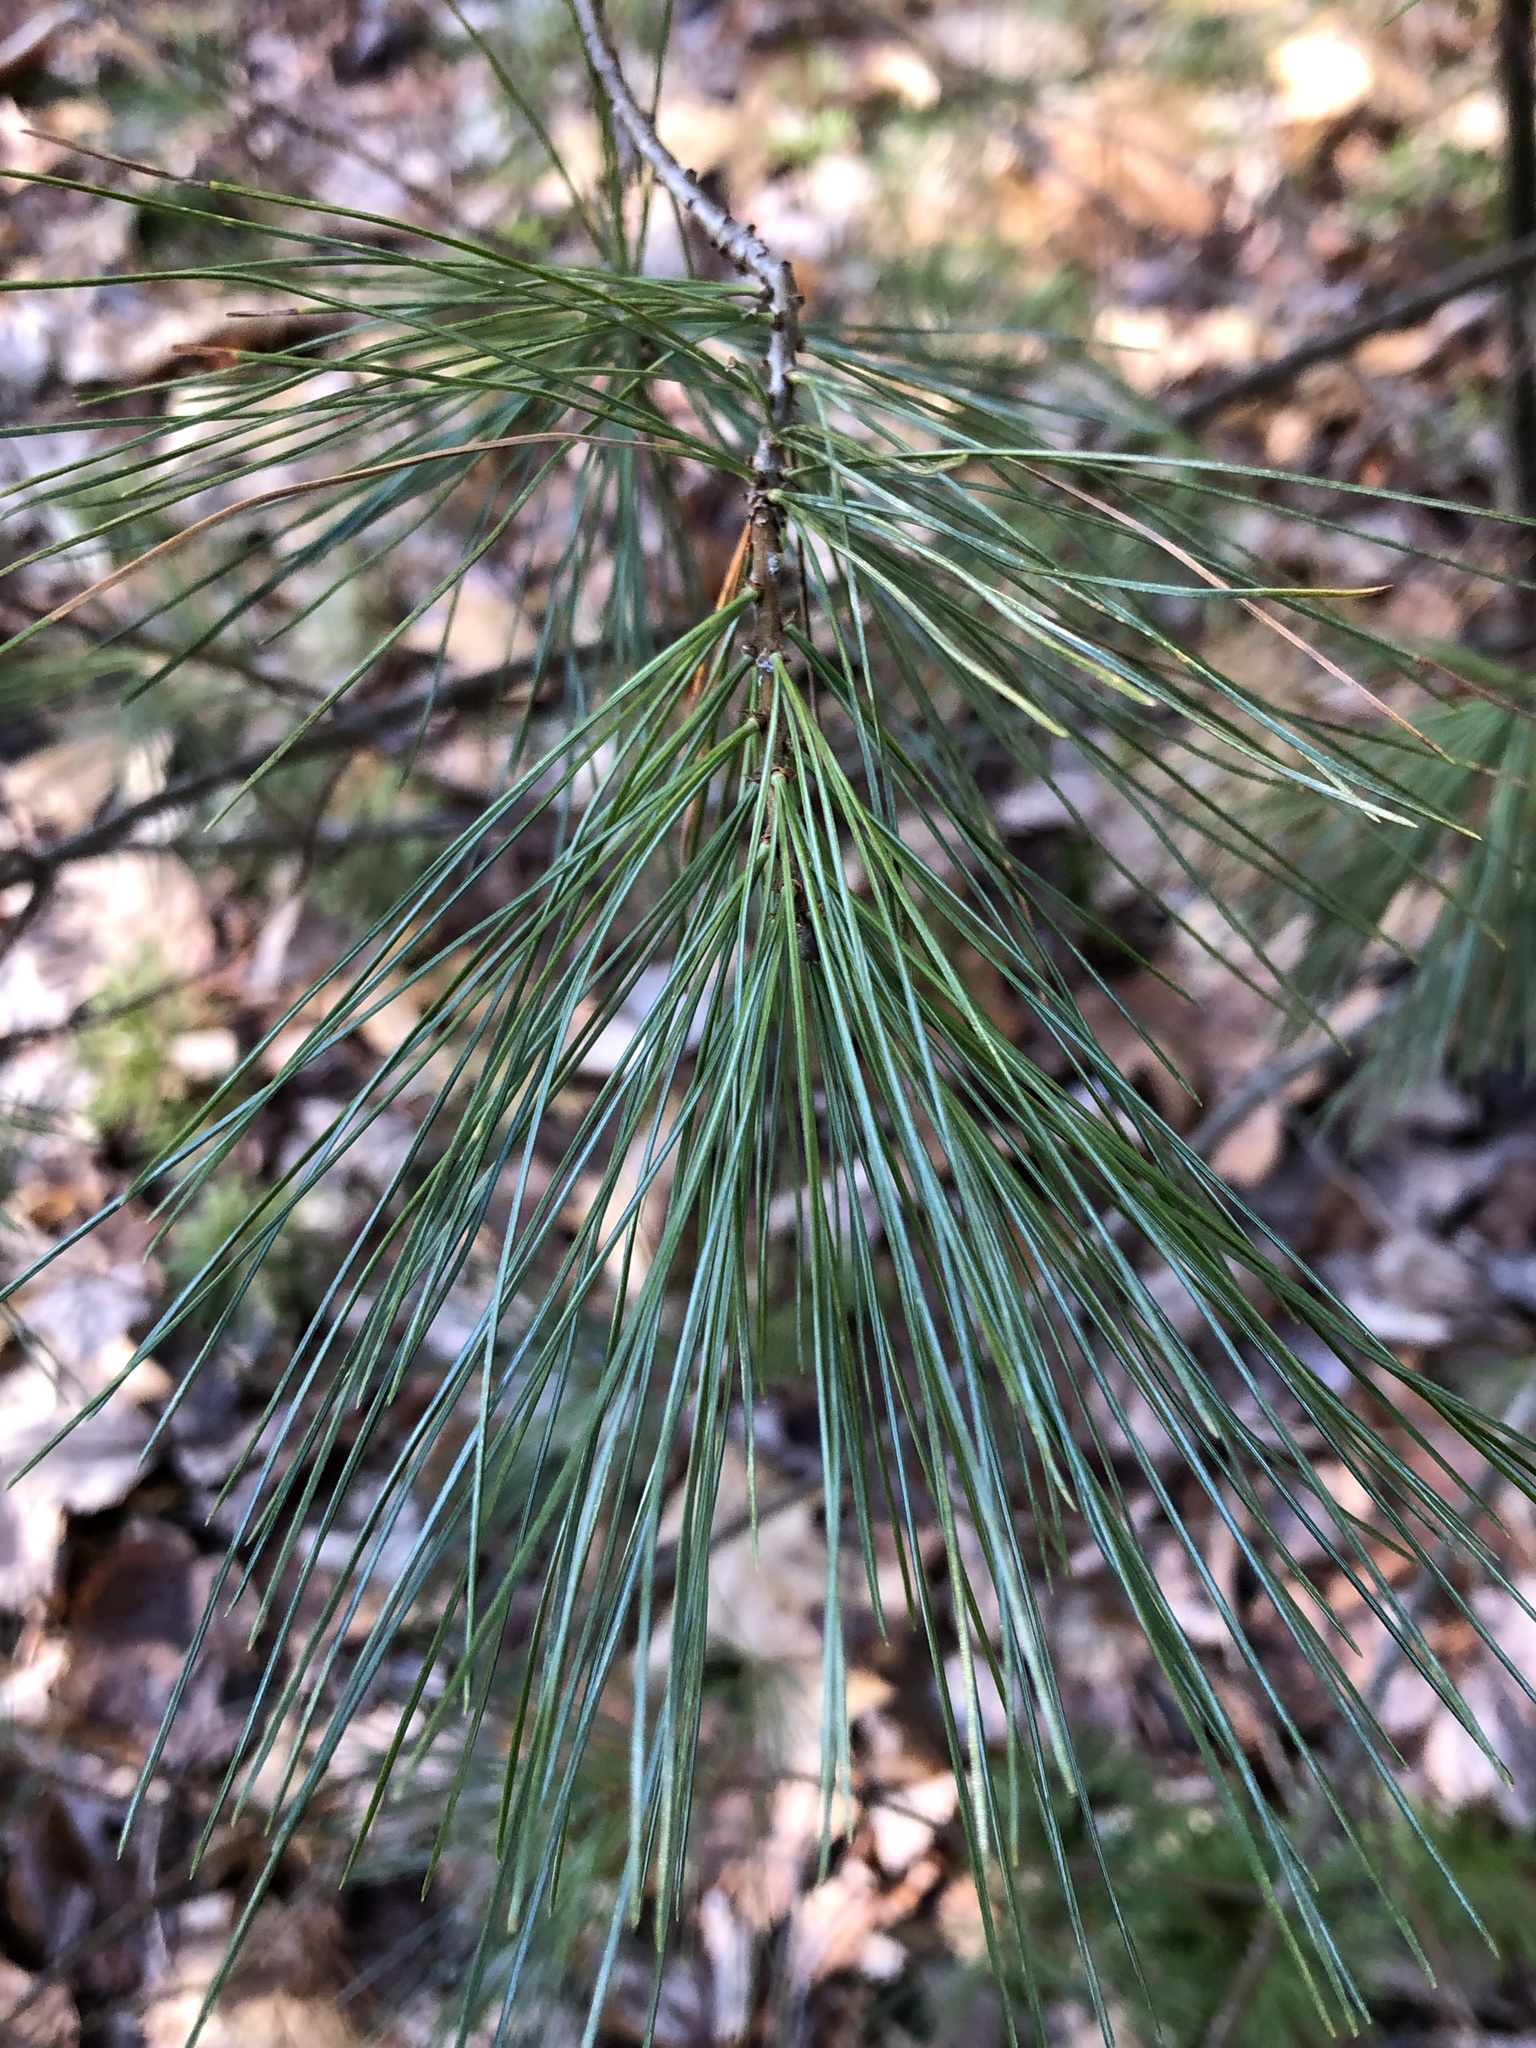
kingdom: Plantae
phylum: Tracheophyta
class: Pinopsida
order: Pinales
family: Pinaceae
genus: Pinus
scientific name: Pinus strobus
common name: Weymouth pine
